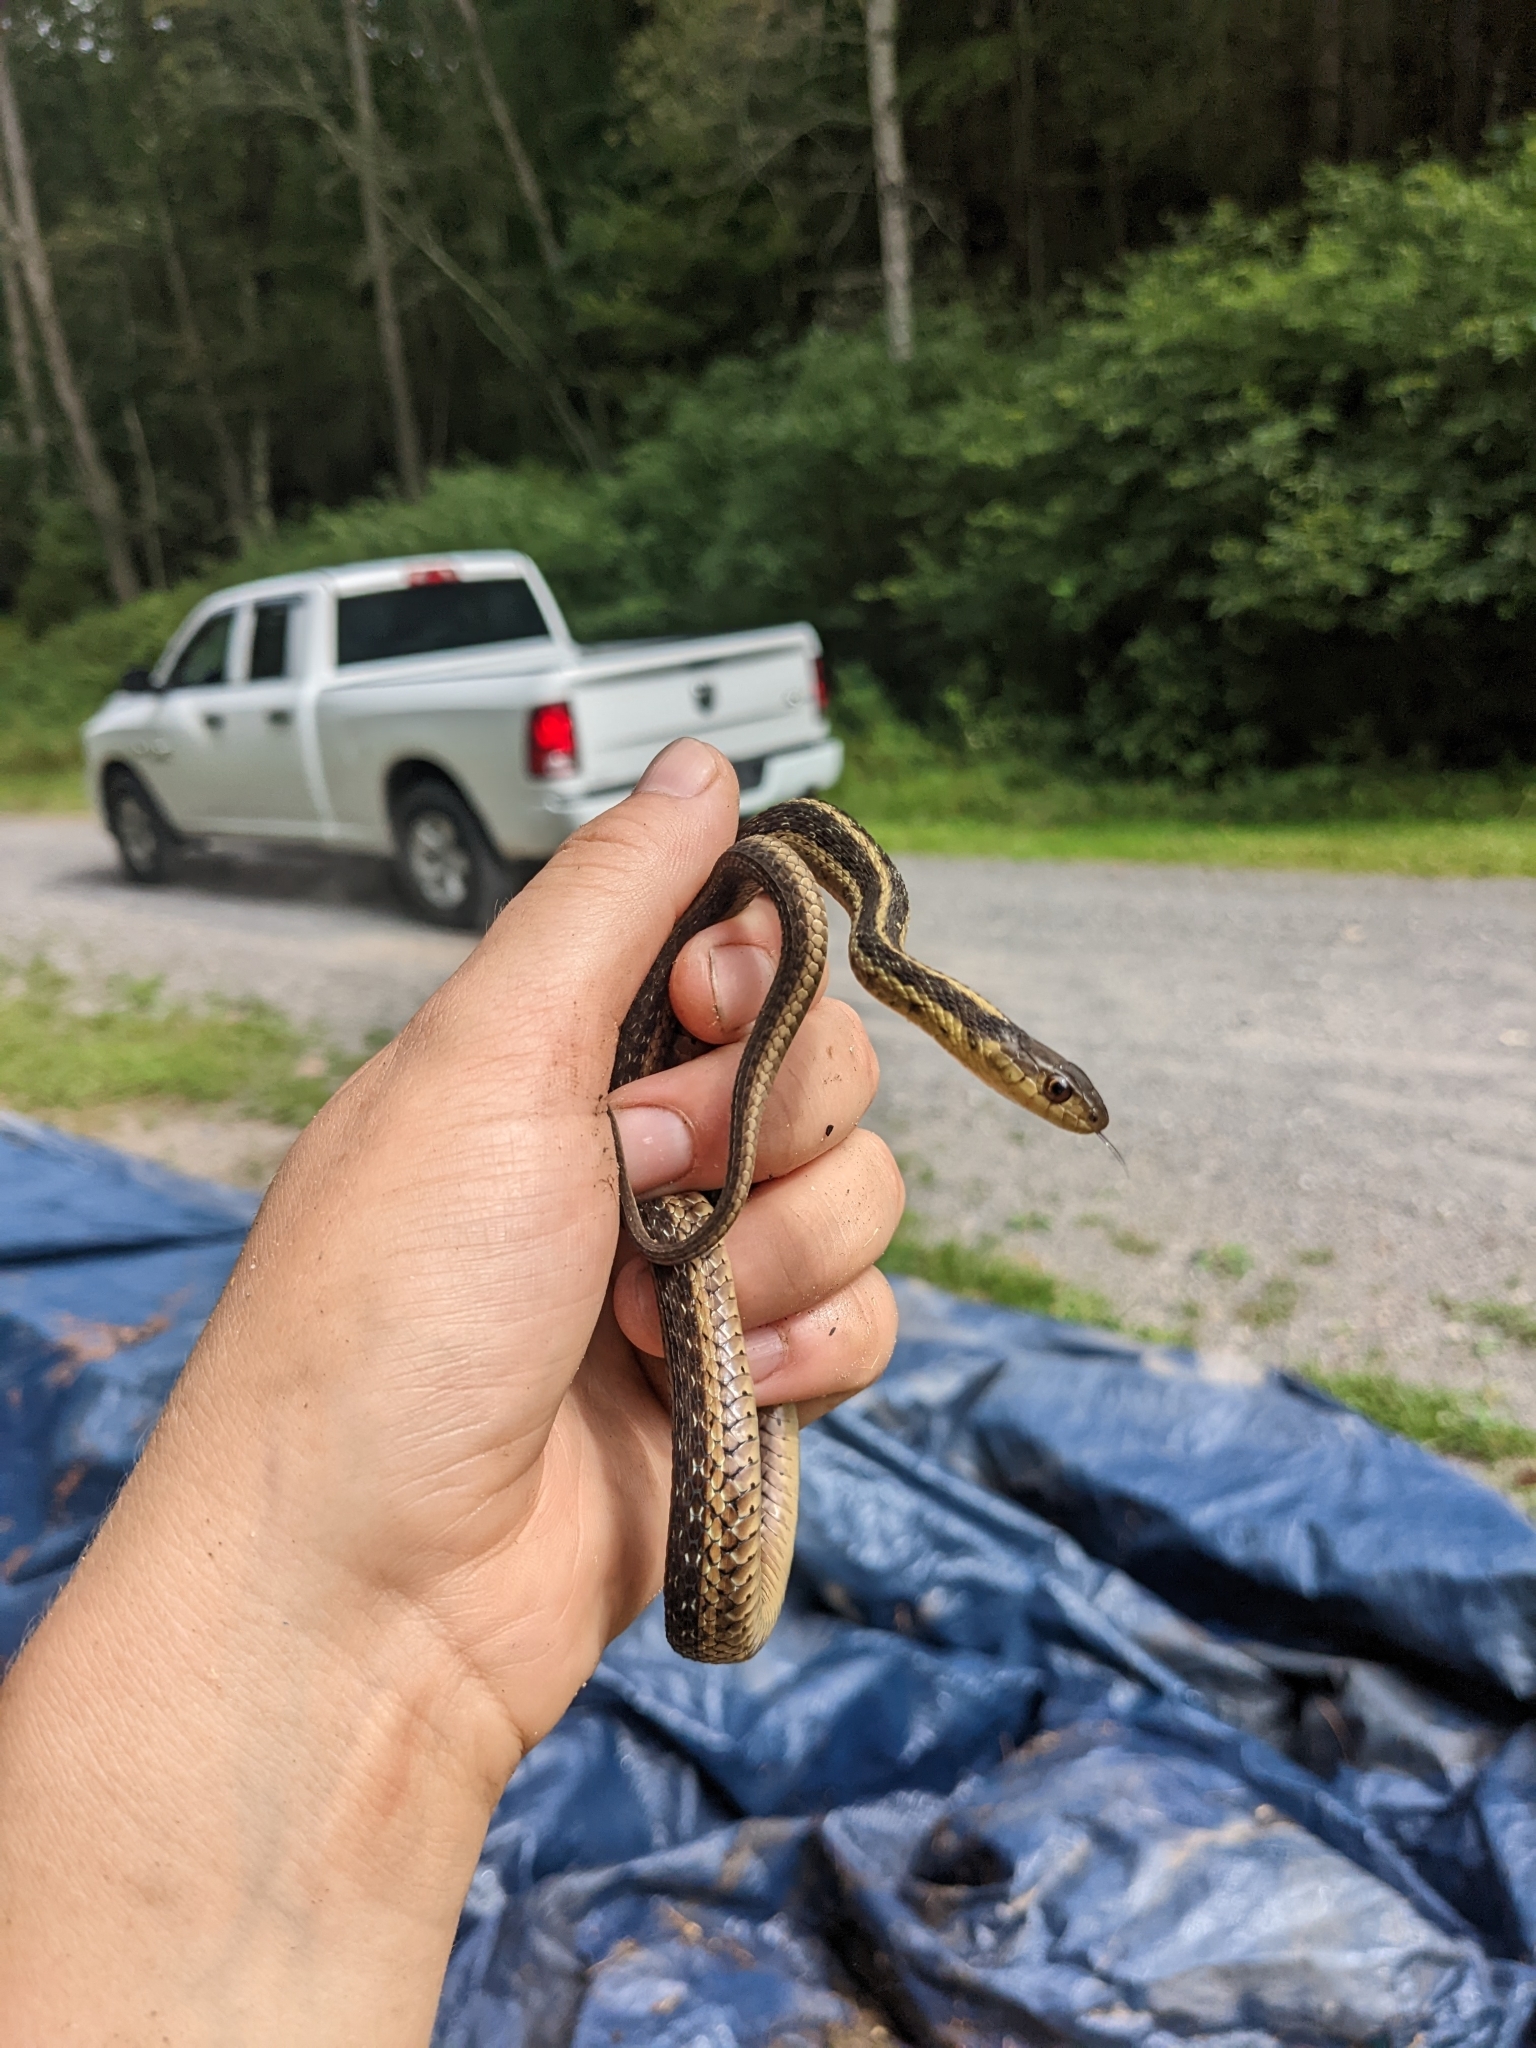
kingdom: Animalia
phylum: Chordata
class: Squamata
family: Colubridae
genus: Thamnophis
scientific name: Thamnophis sirtalis
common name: Common garter snake
